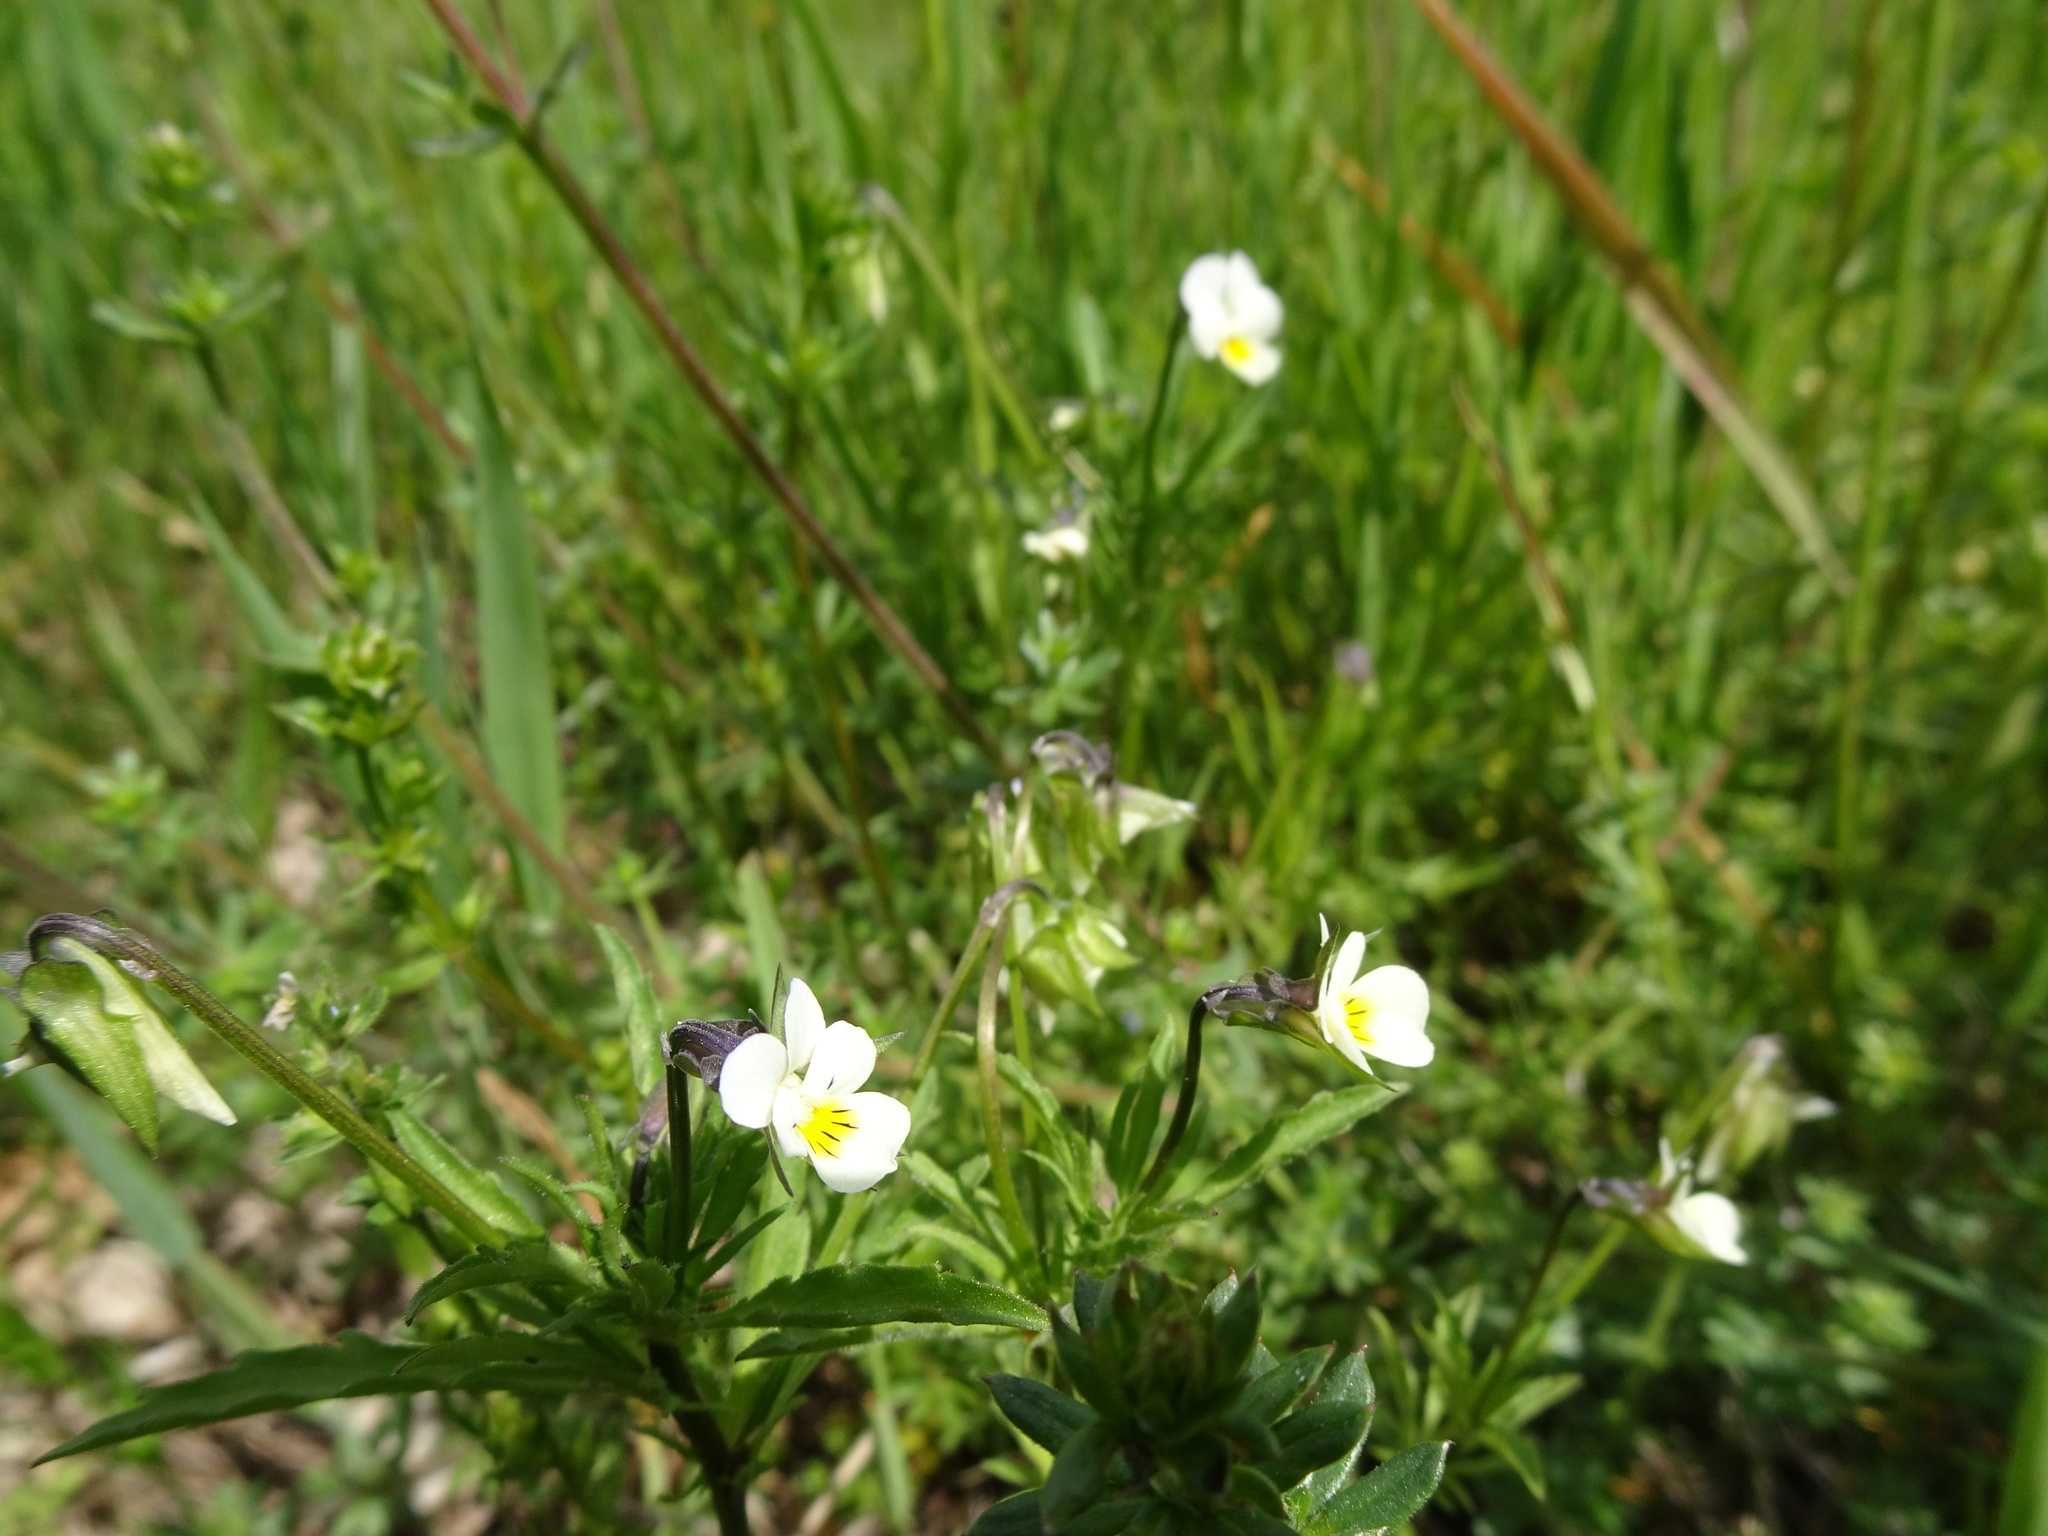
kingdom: Plantae
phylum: Tracheophyta
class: Magnoliopsida
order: Malpighiales
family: Violaceae
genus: Viola
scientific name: Viola arvensis
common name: Field pansy
